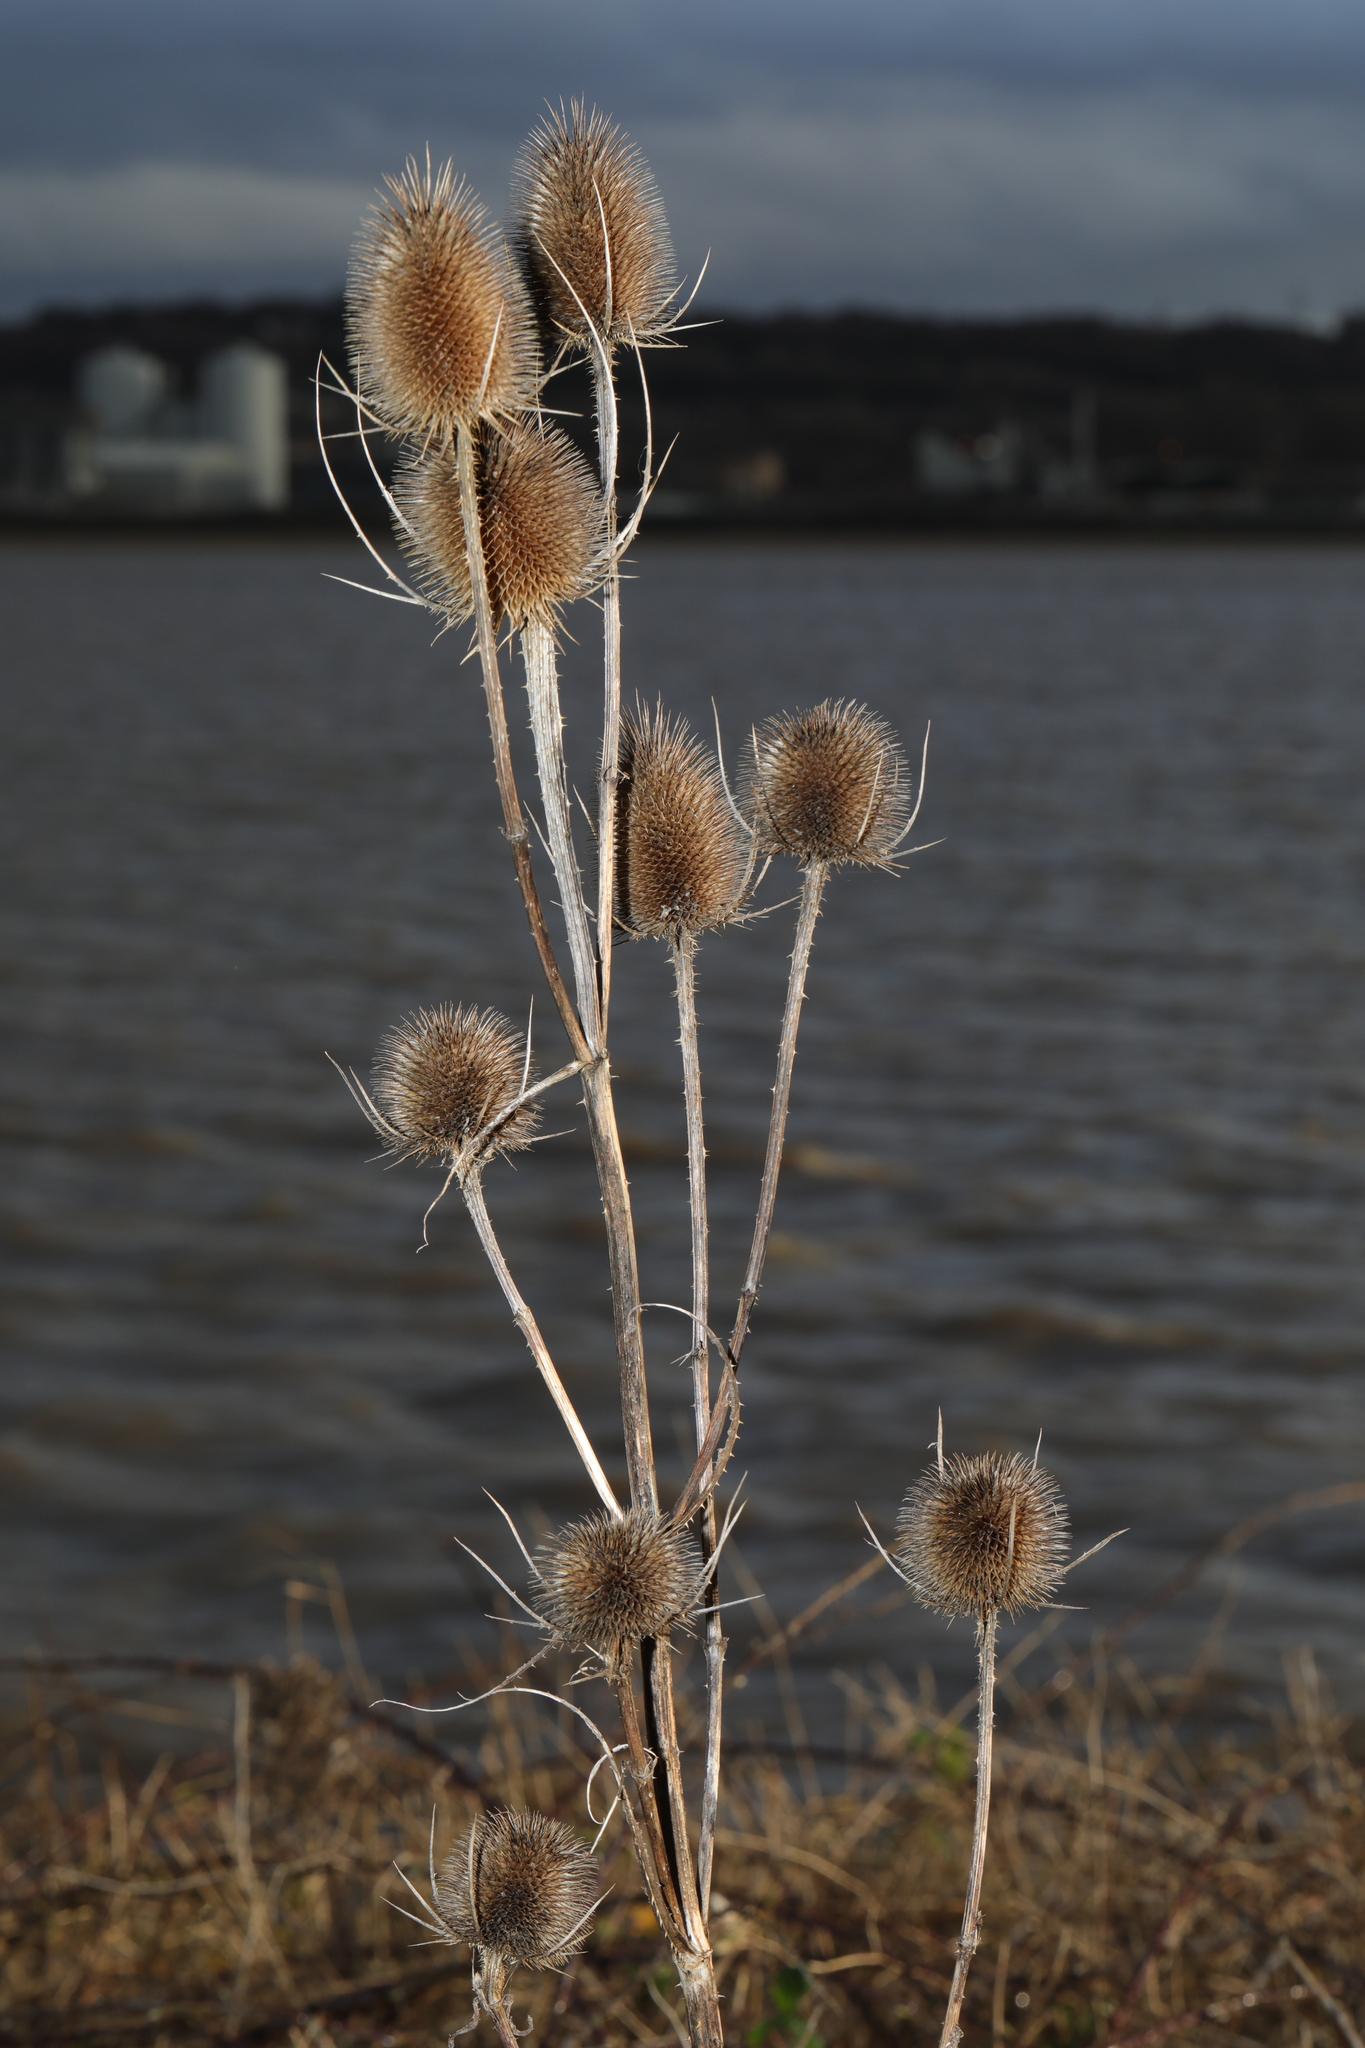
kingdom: Plantae
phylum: Tracheophyta
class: Magnoliopsida
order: Dipsacales
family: Caprifoliaceae
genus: Dipsacus
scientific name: Dipsacus fullonum
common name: Teasel
